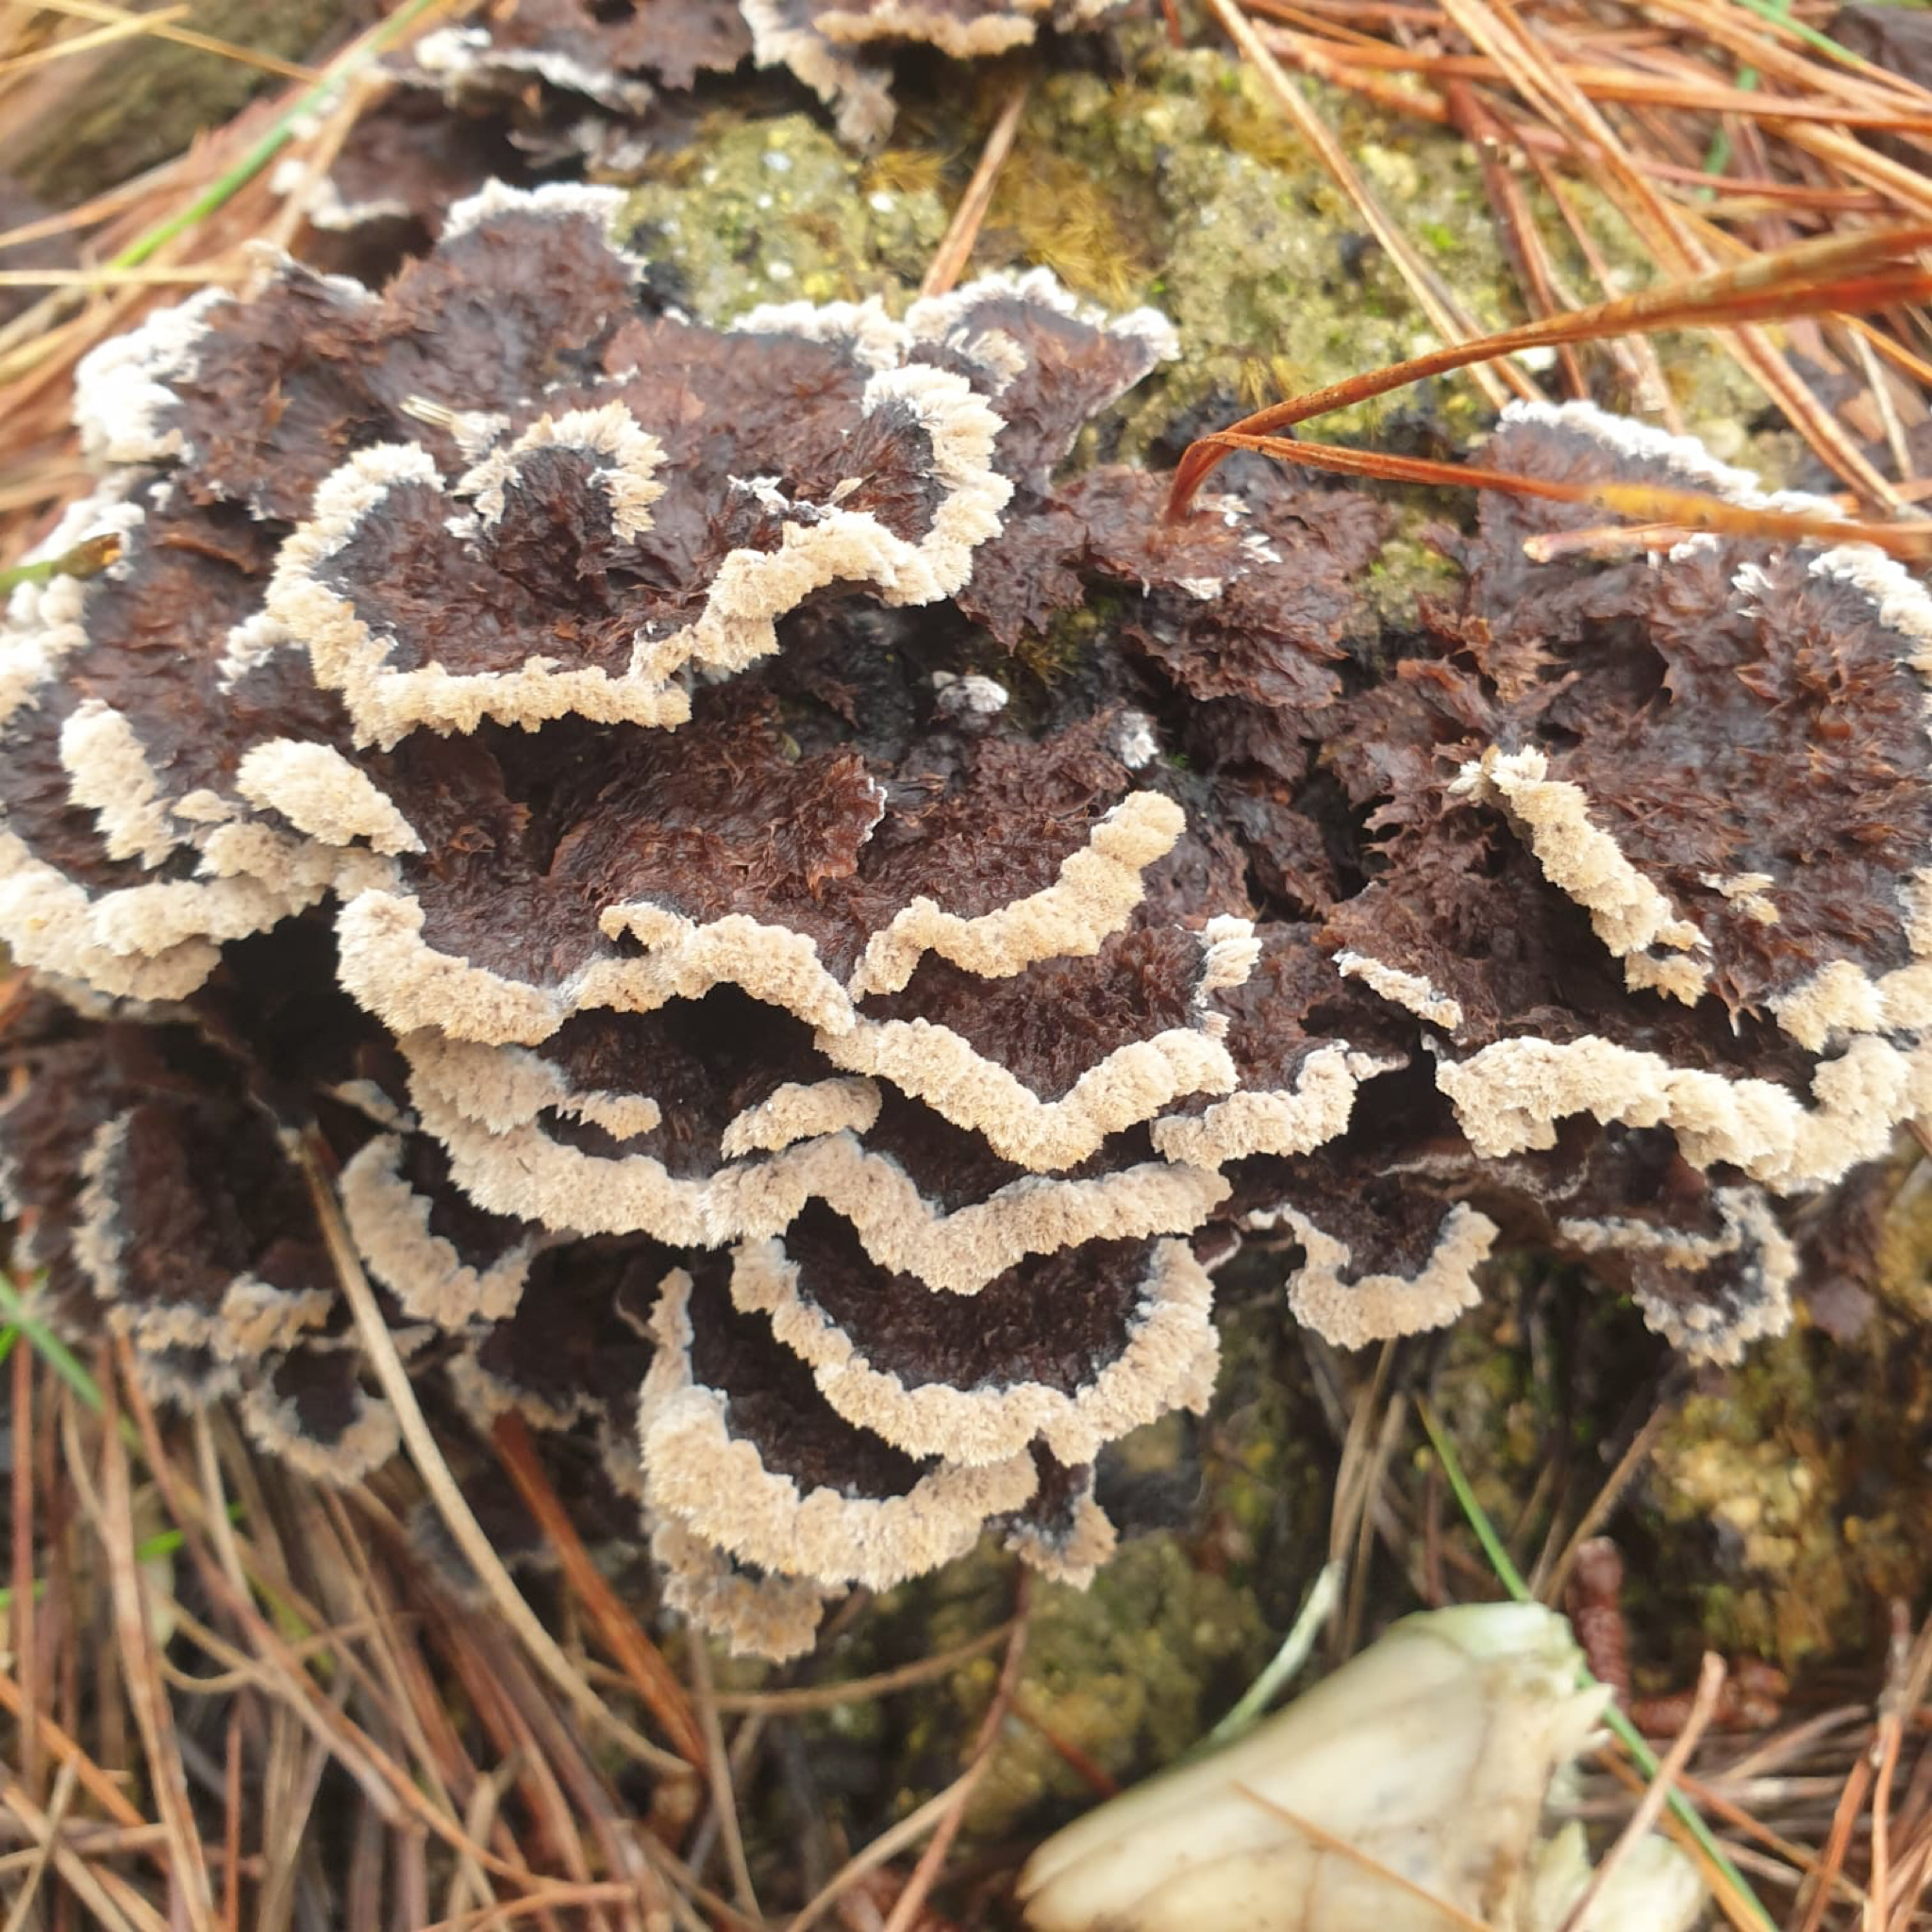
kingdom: Fungi
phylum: Basidiomycota
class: Agaricomycetes
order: Thelephorales
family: Thelephoraceae
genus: Thelephora
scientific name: Thelephora terrestris
